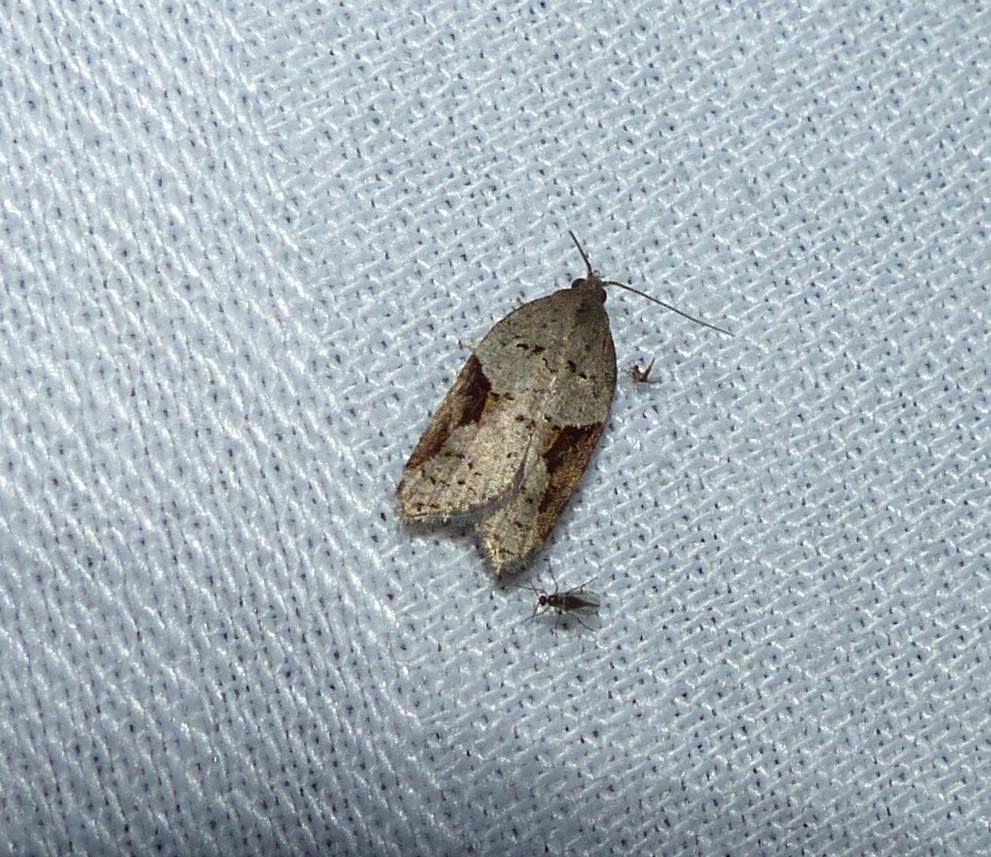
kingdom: Animalia
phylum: Arthropoda
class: Insecta
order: Lepidoptera
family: Tortricidae
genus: Acleris
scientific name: Acleris macdunnoughi
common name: Macdunnough's acleris
